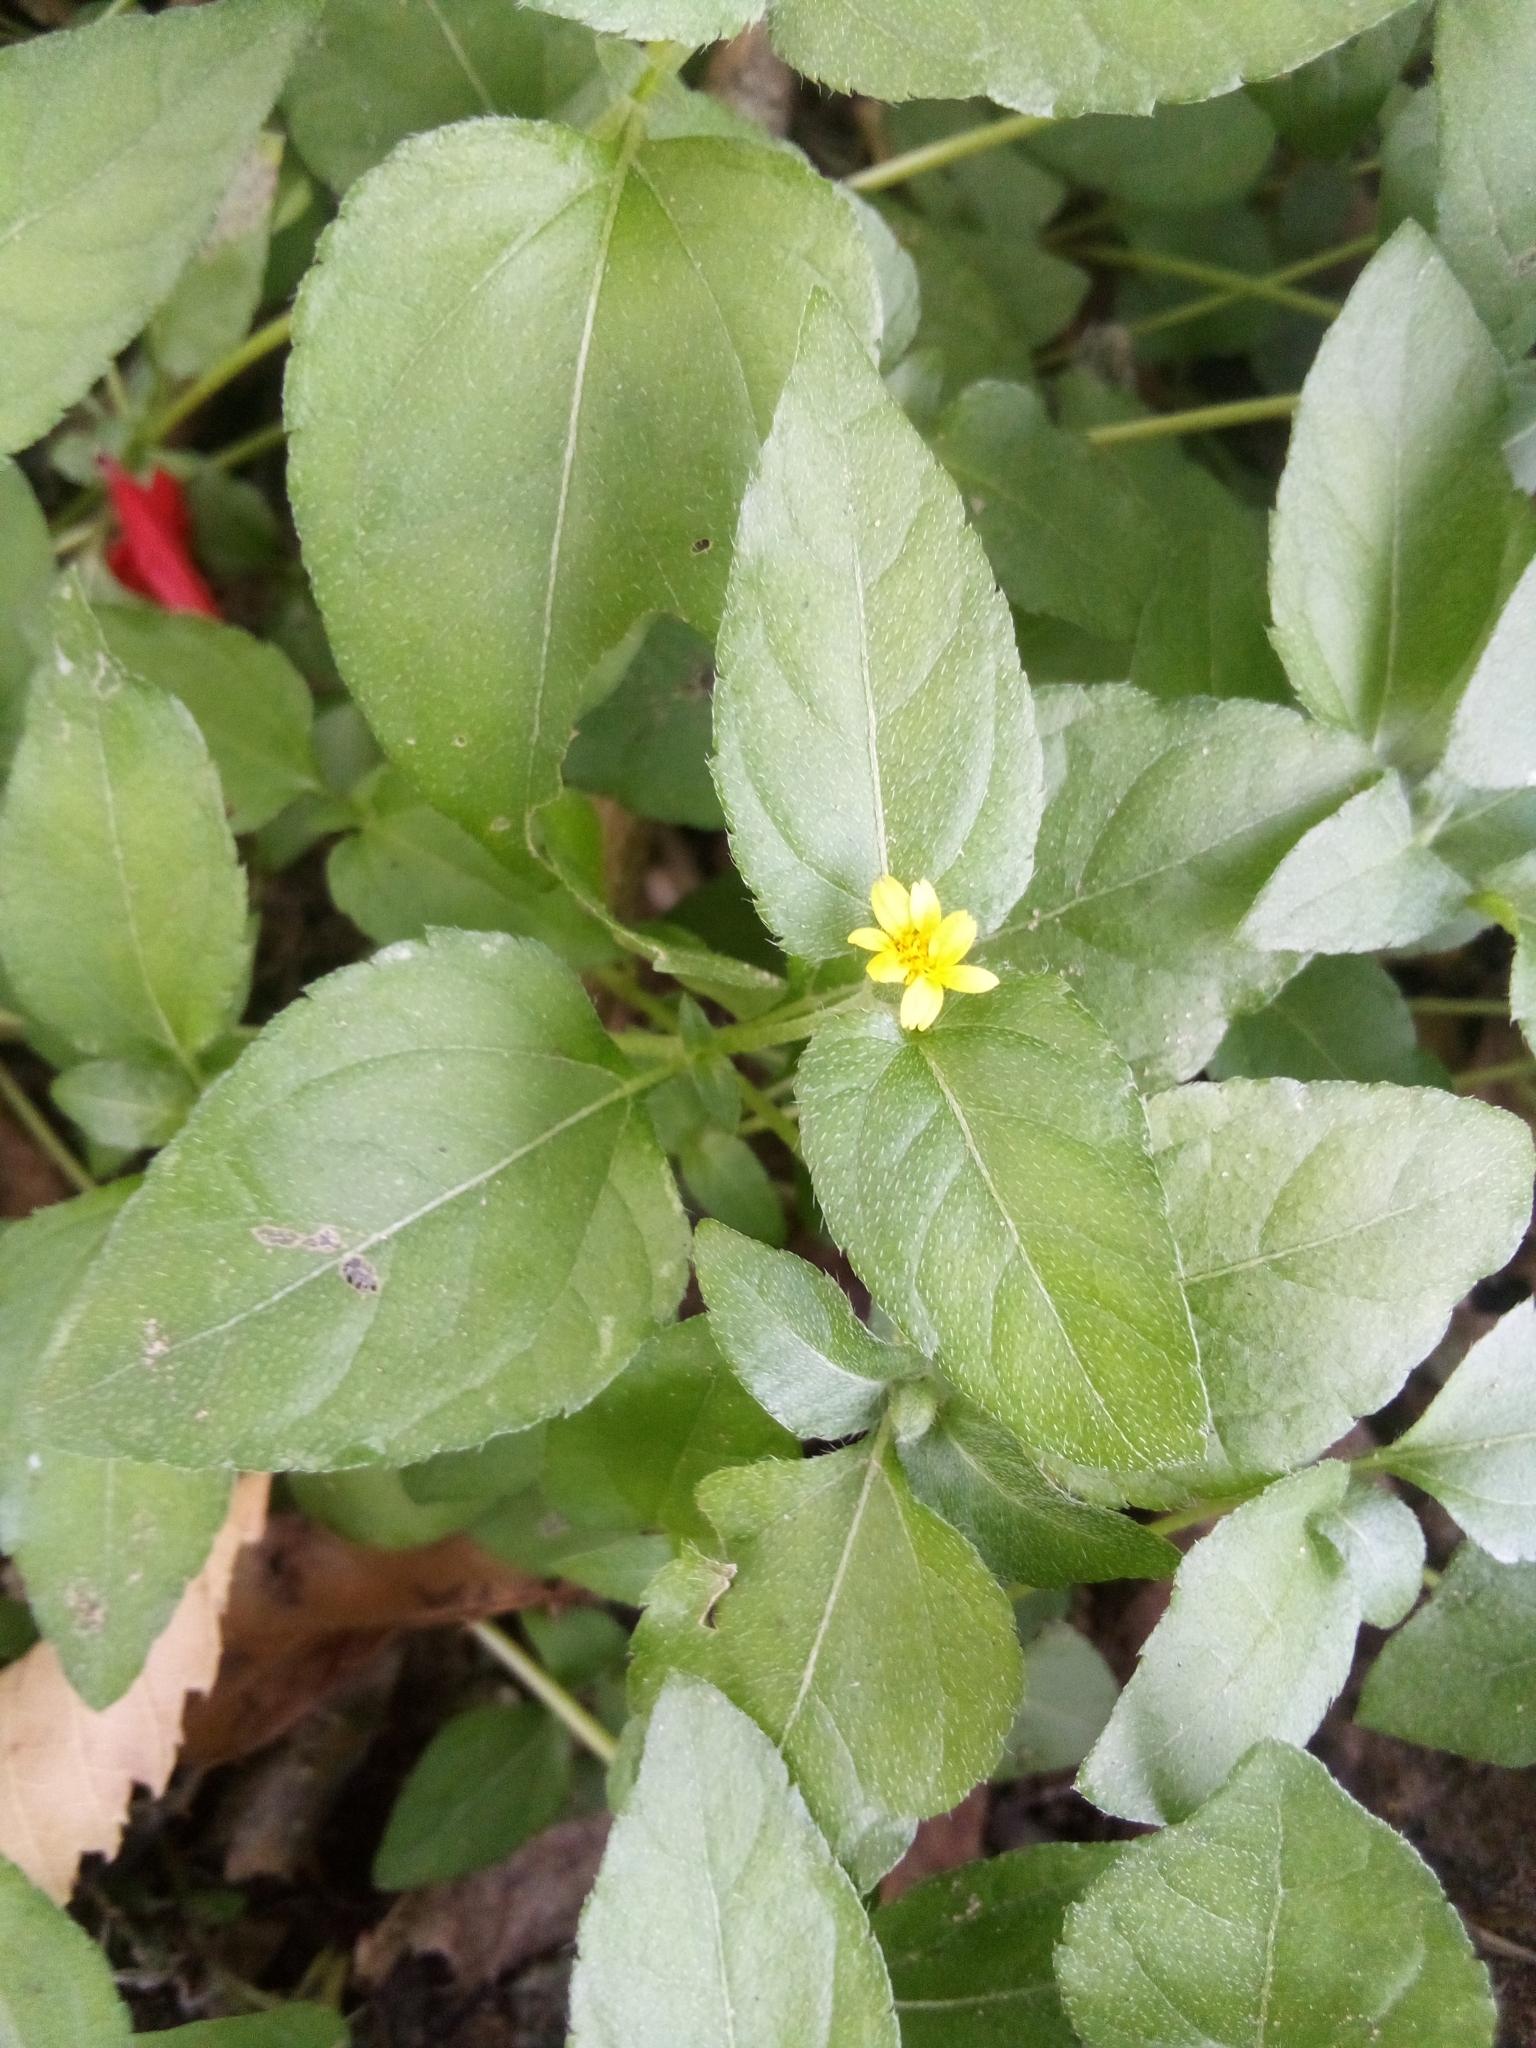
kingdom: Plantae
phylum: Tracheophyta
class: Magnoliopsida
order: Asterales
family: Asteraceae
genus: Calyptocarpus
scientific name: Calyptocarpus vialis
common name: Straggler daisy
